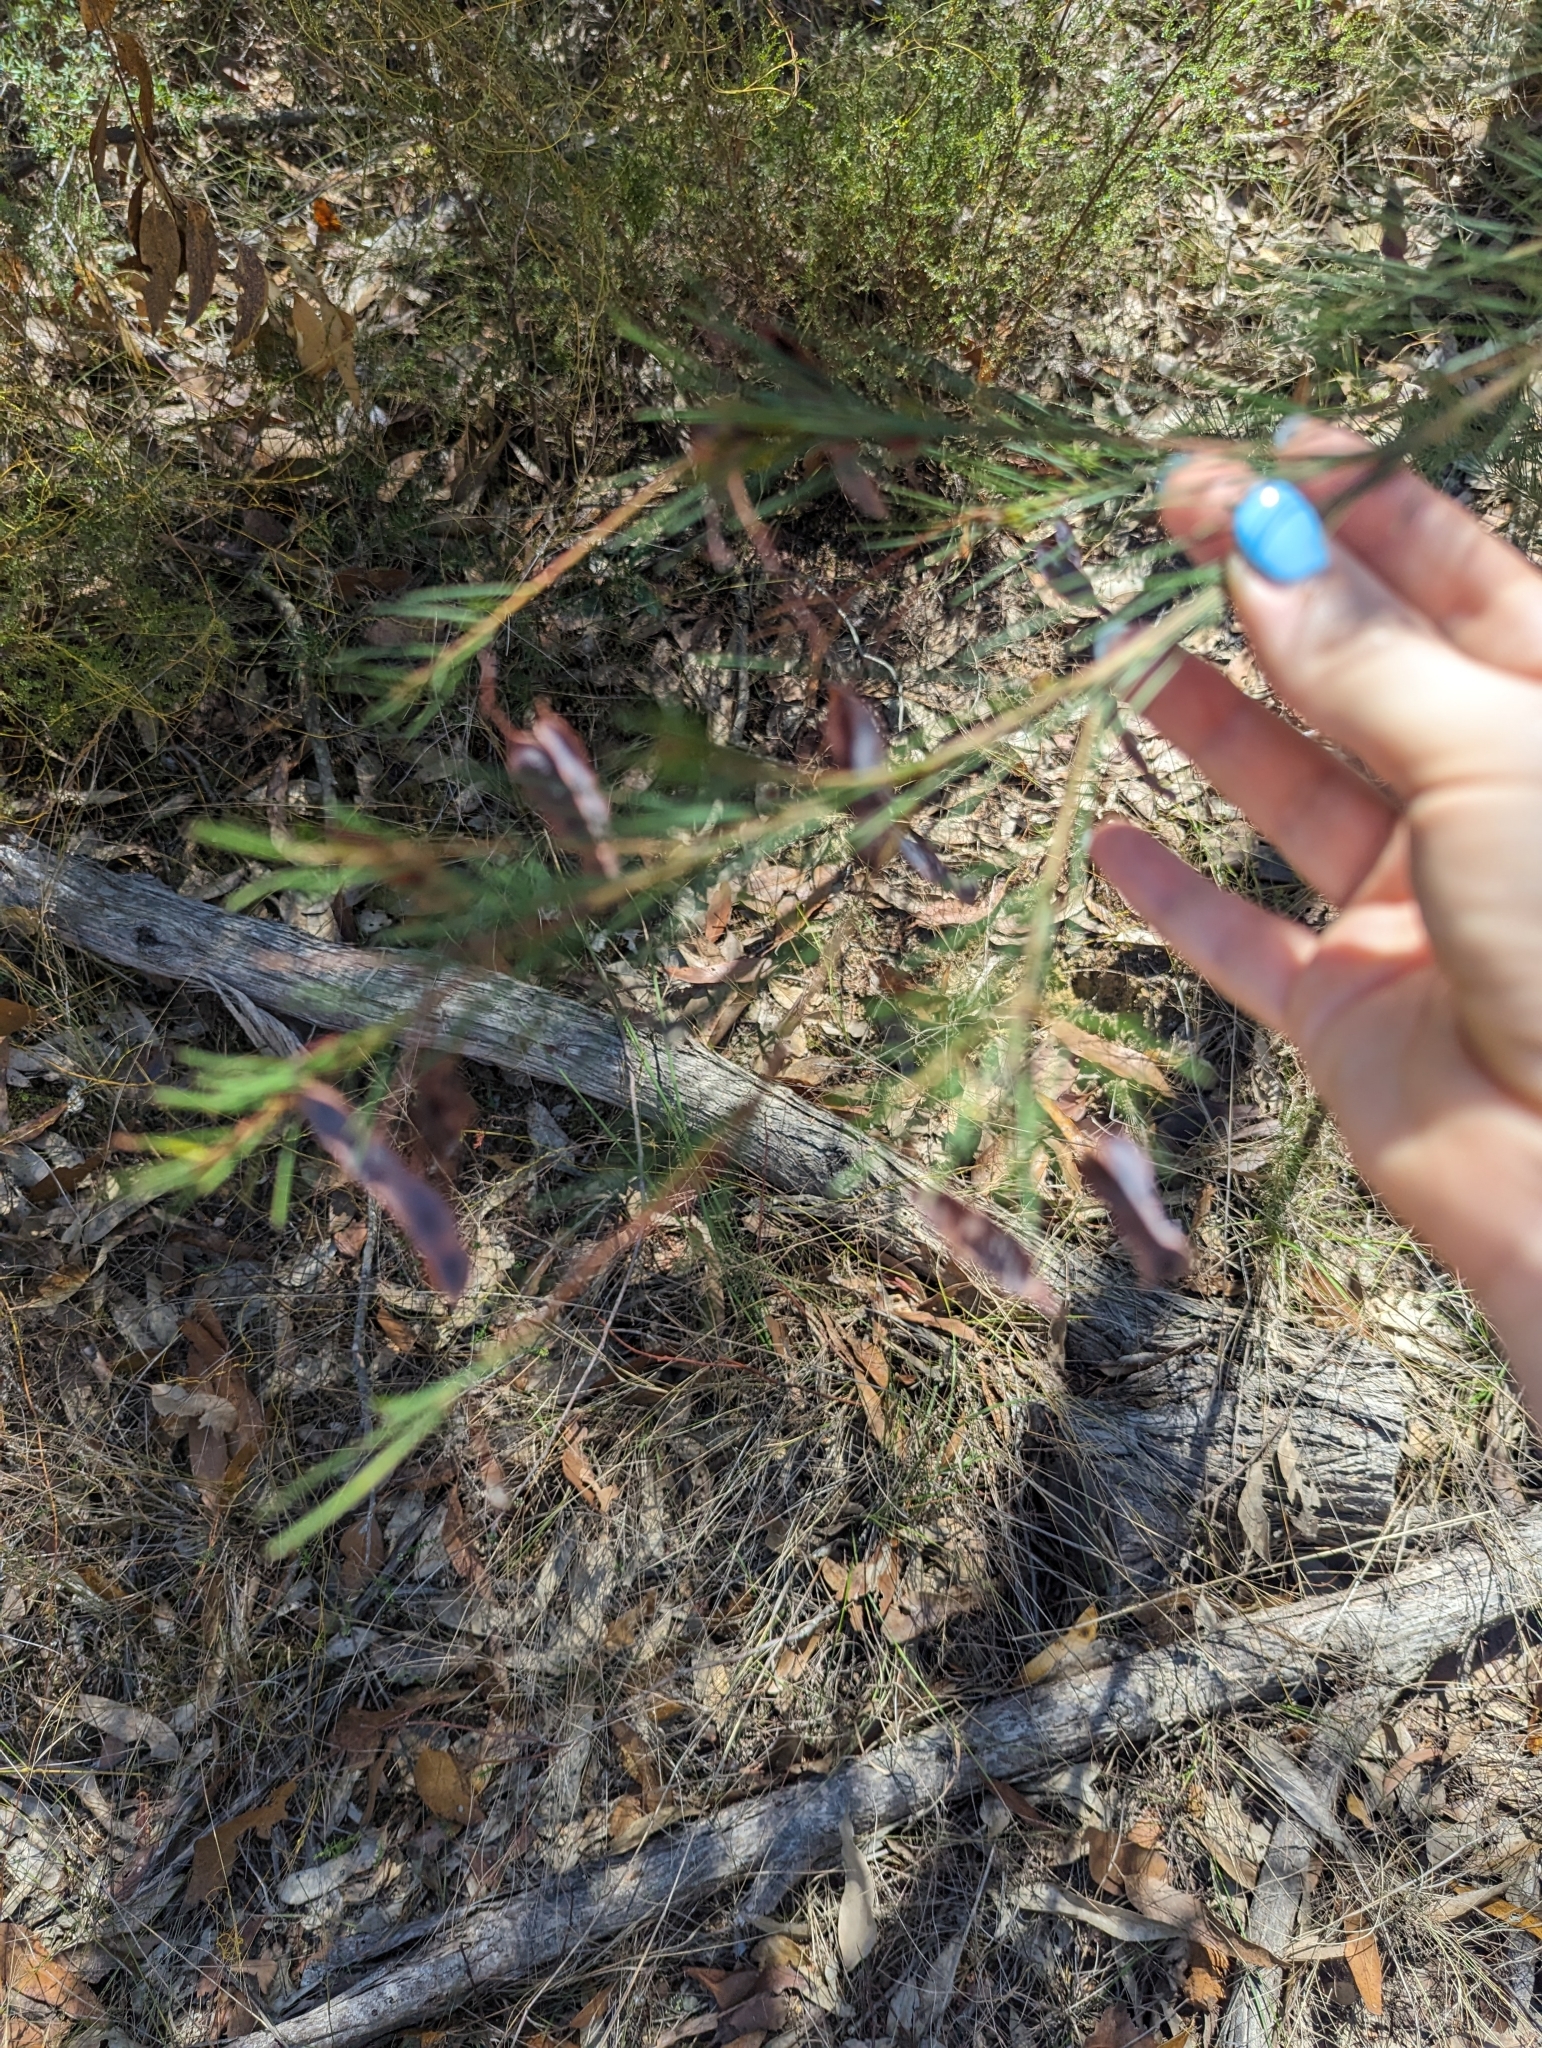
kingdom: Plantae
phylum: Tracheophyta
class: Magnoliopsida
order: Fabales
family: Fabaceae
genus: Acacia
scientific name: Acacia linifolia
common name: White wattle
